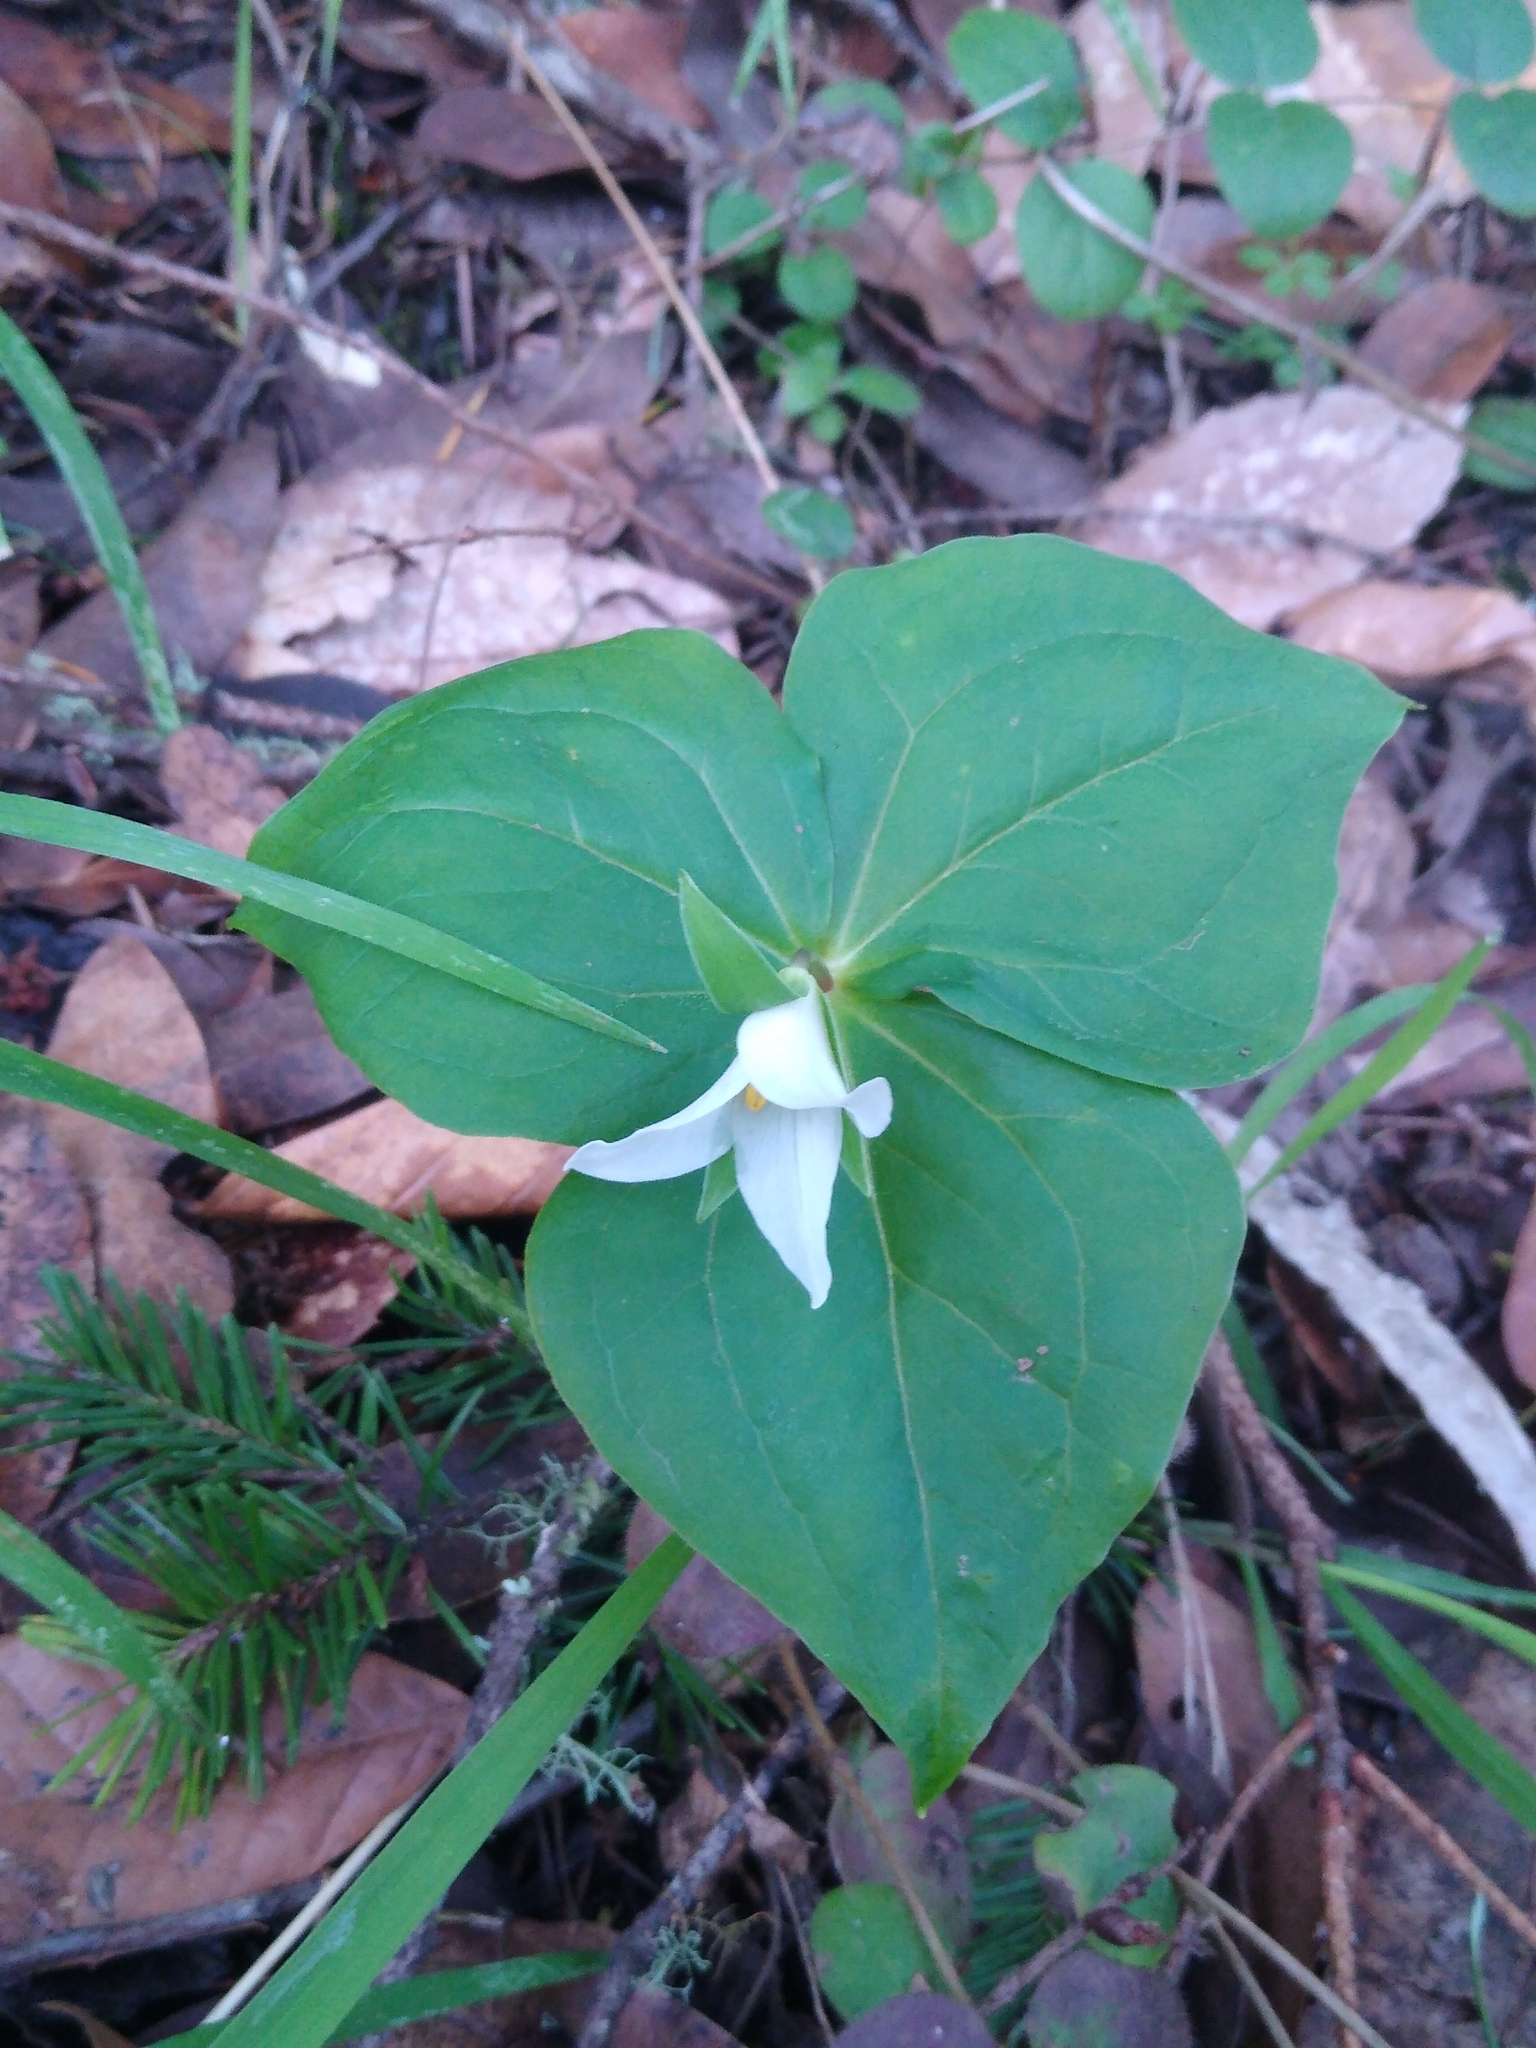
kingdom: Plantae
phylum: Tracheophyta
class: Liliopsida
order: Liliales
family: Melanthiaceae
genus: Trillium
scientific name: Trillium ovatum
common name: Pacific trillium
